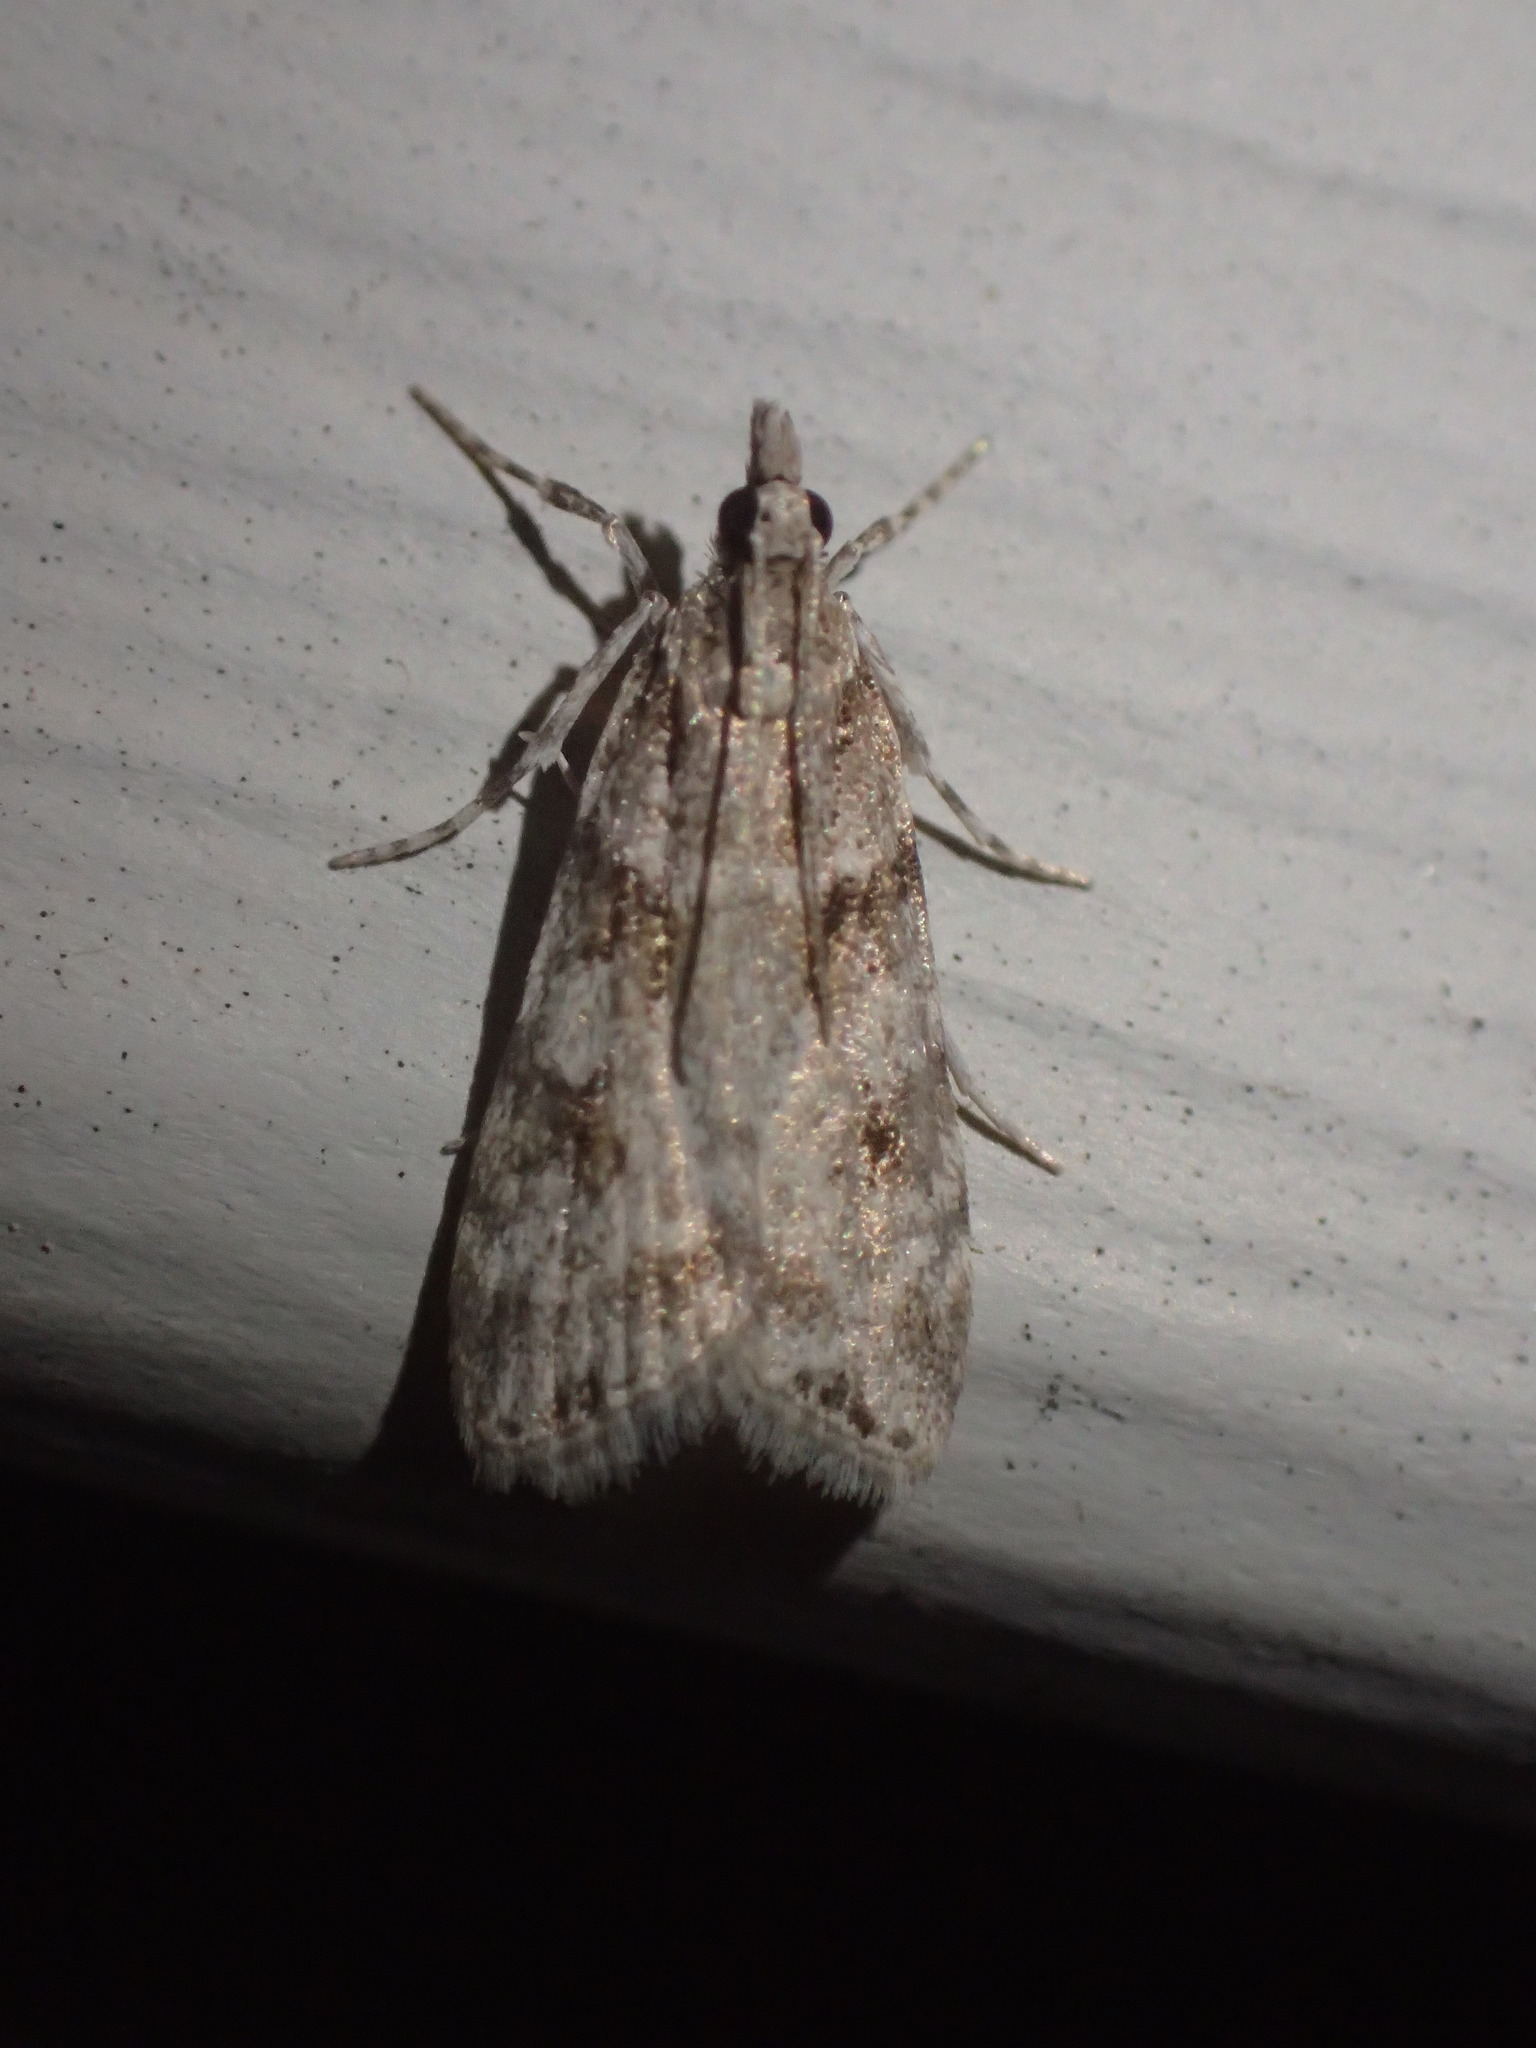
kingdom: Animalia
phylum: Arthropoda
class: Insecta
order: Lepidoptera
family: Crambidae
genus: Scoparia
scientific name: Scoparia biplagialis
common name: Double-striped scoparia moth
